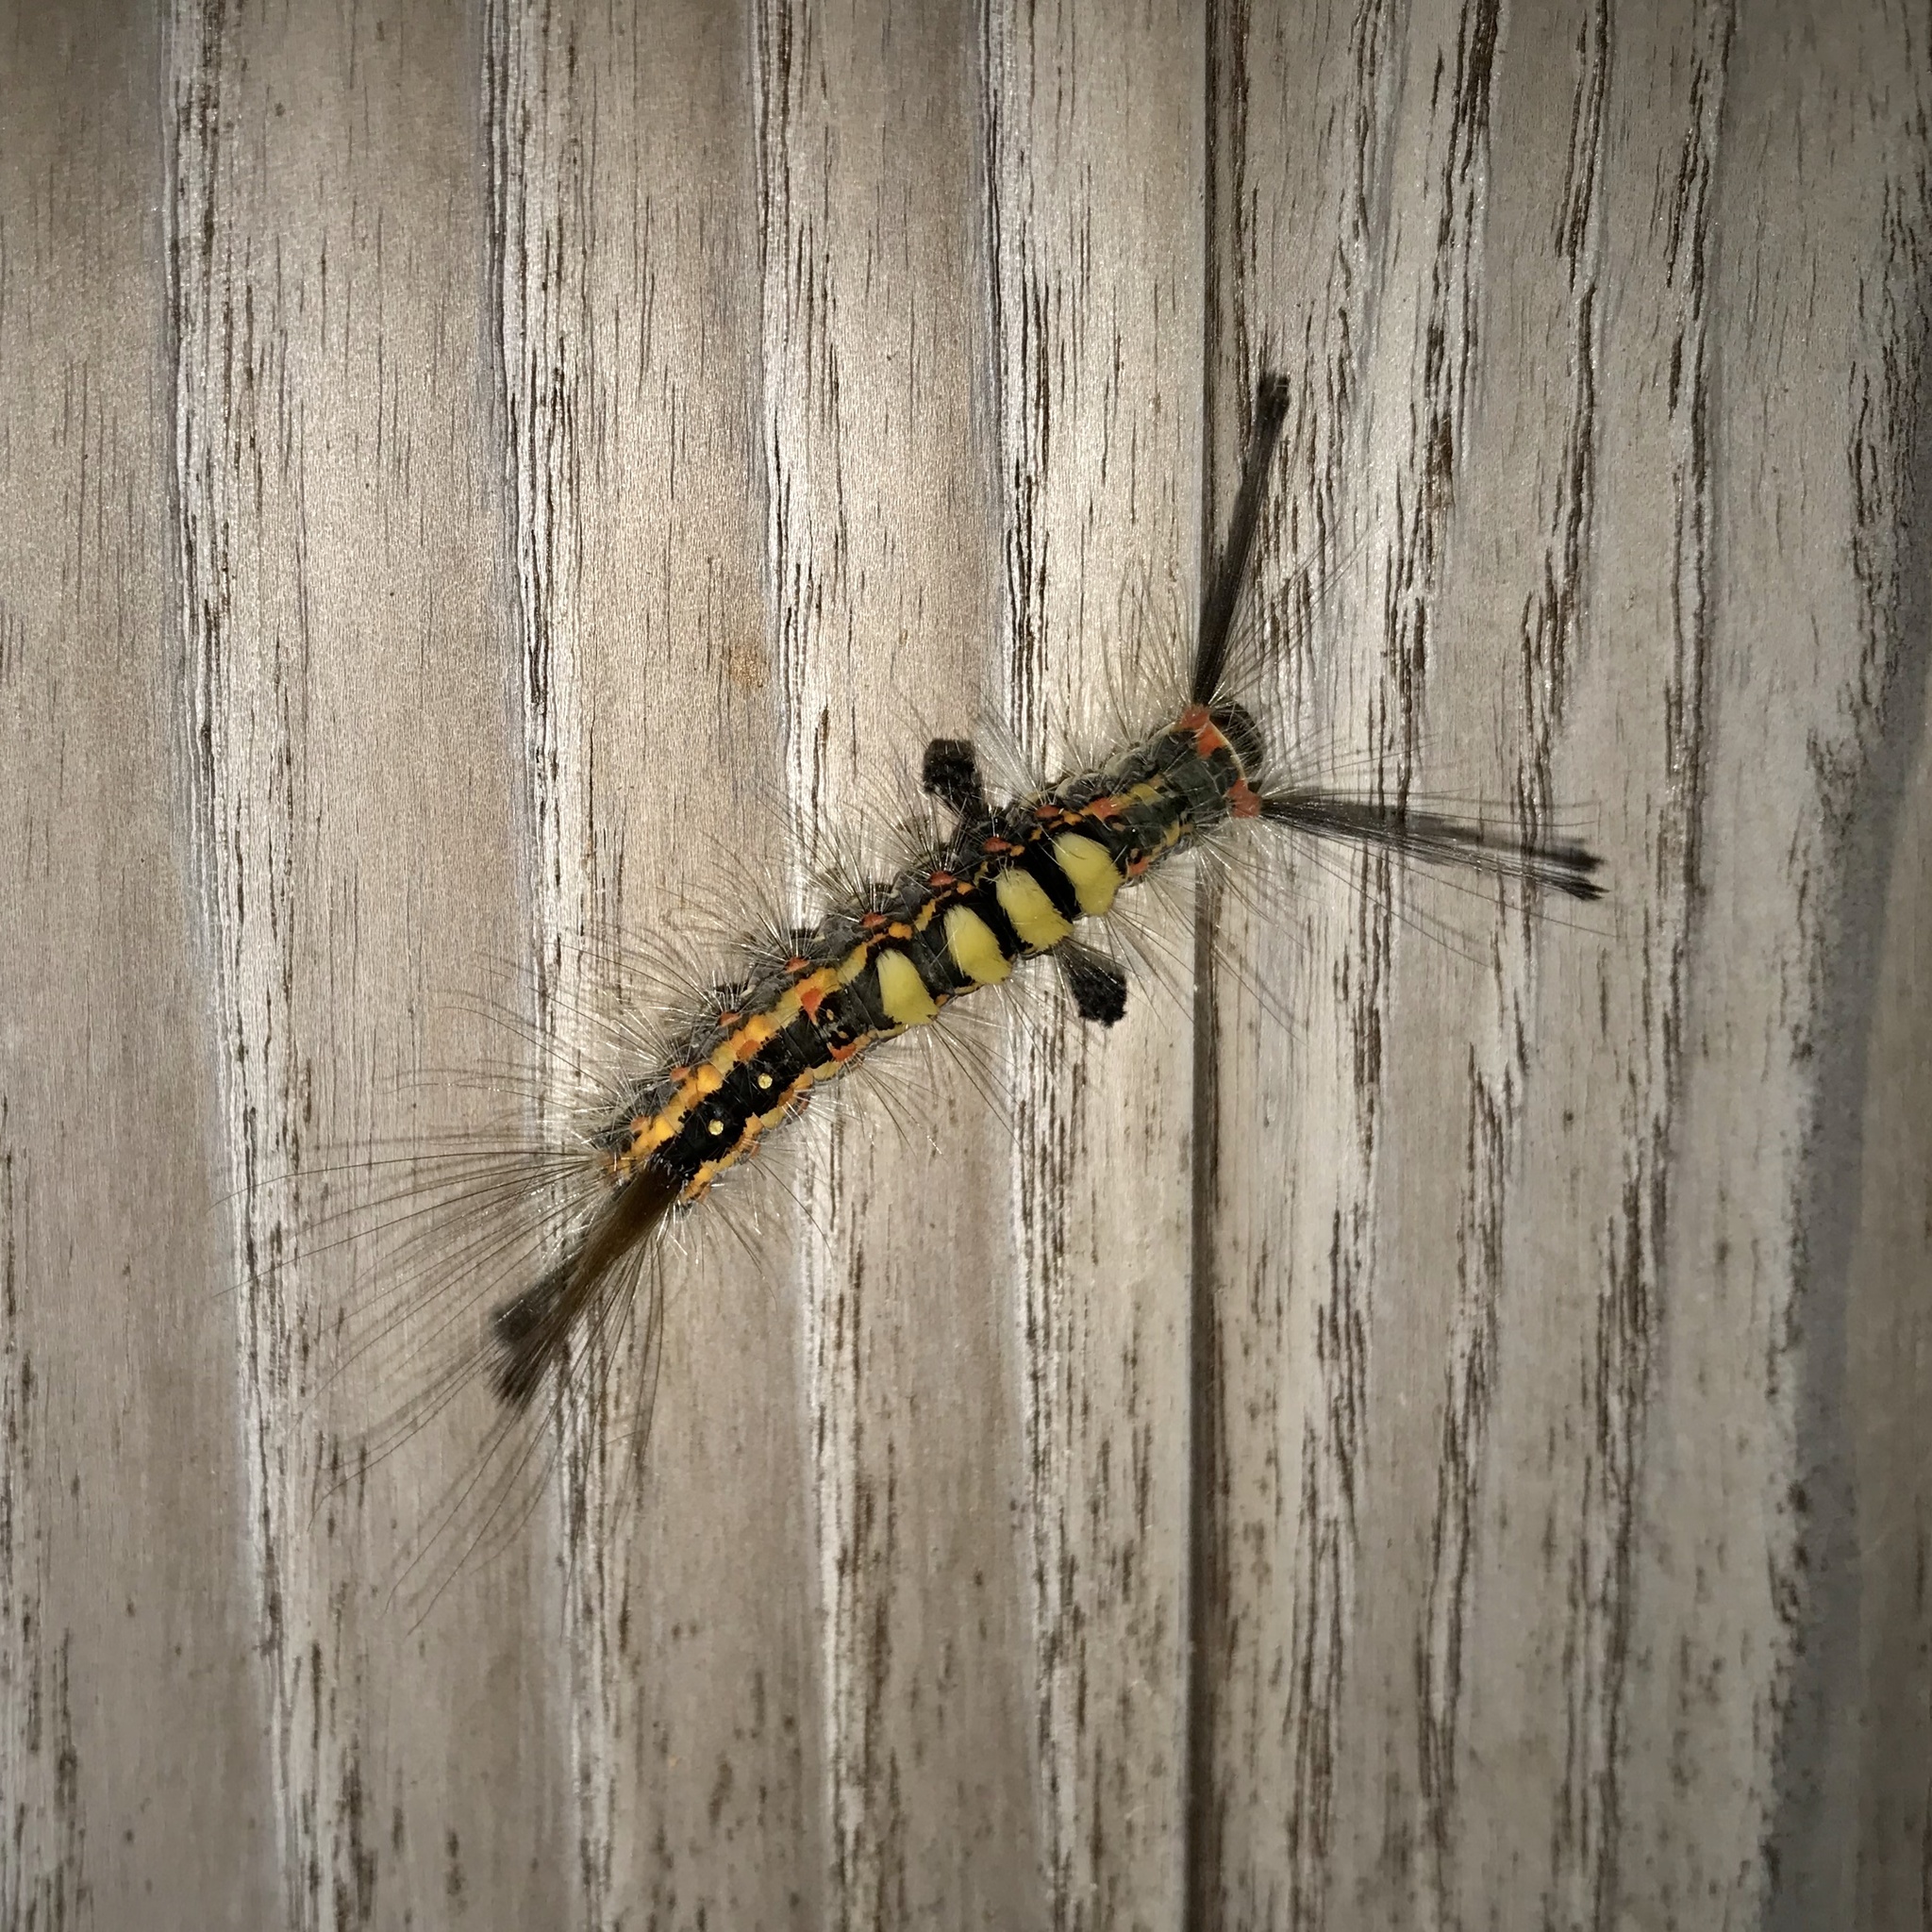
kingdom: Animalia
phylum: Arthropoda
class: Insecta
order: Lepidoptera
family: Erebidae
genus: Orgyia
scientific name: Orgyia thyellina
